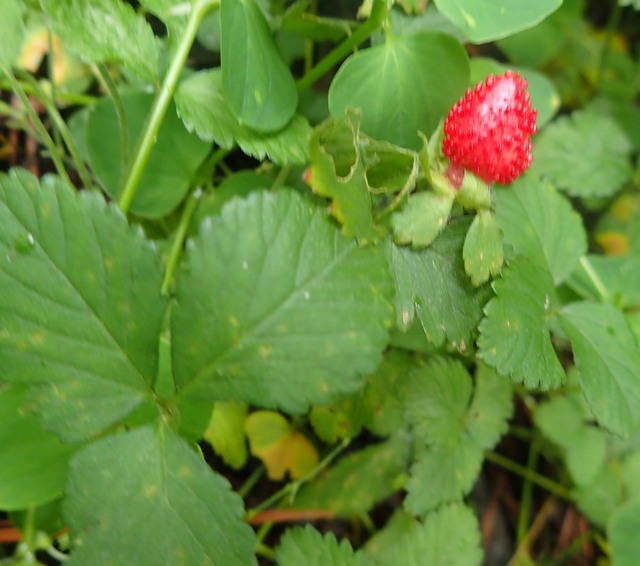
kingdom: Plantae
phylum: Tracheophyta
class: Magnoliopsida
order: Rosales
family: Rosaceae
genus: Potentilla
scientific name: Potentilla indica
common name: Yellow-flowered strawberry
